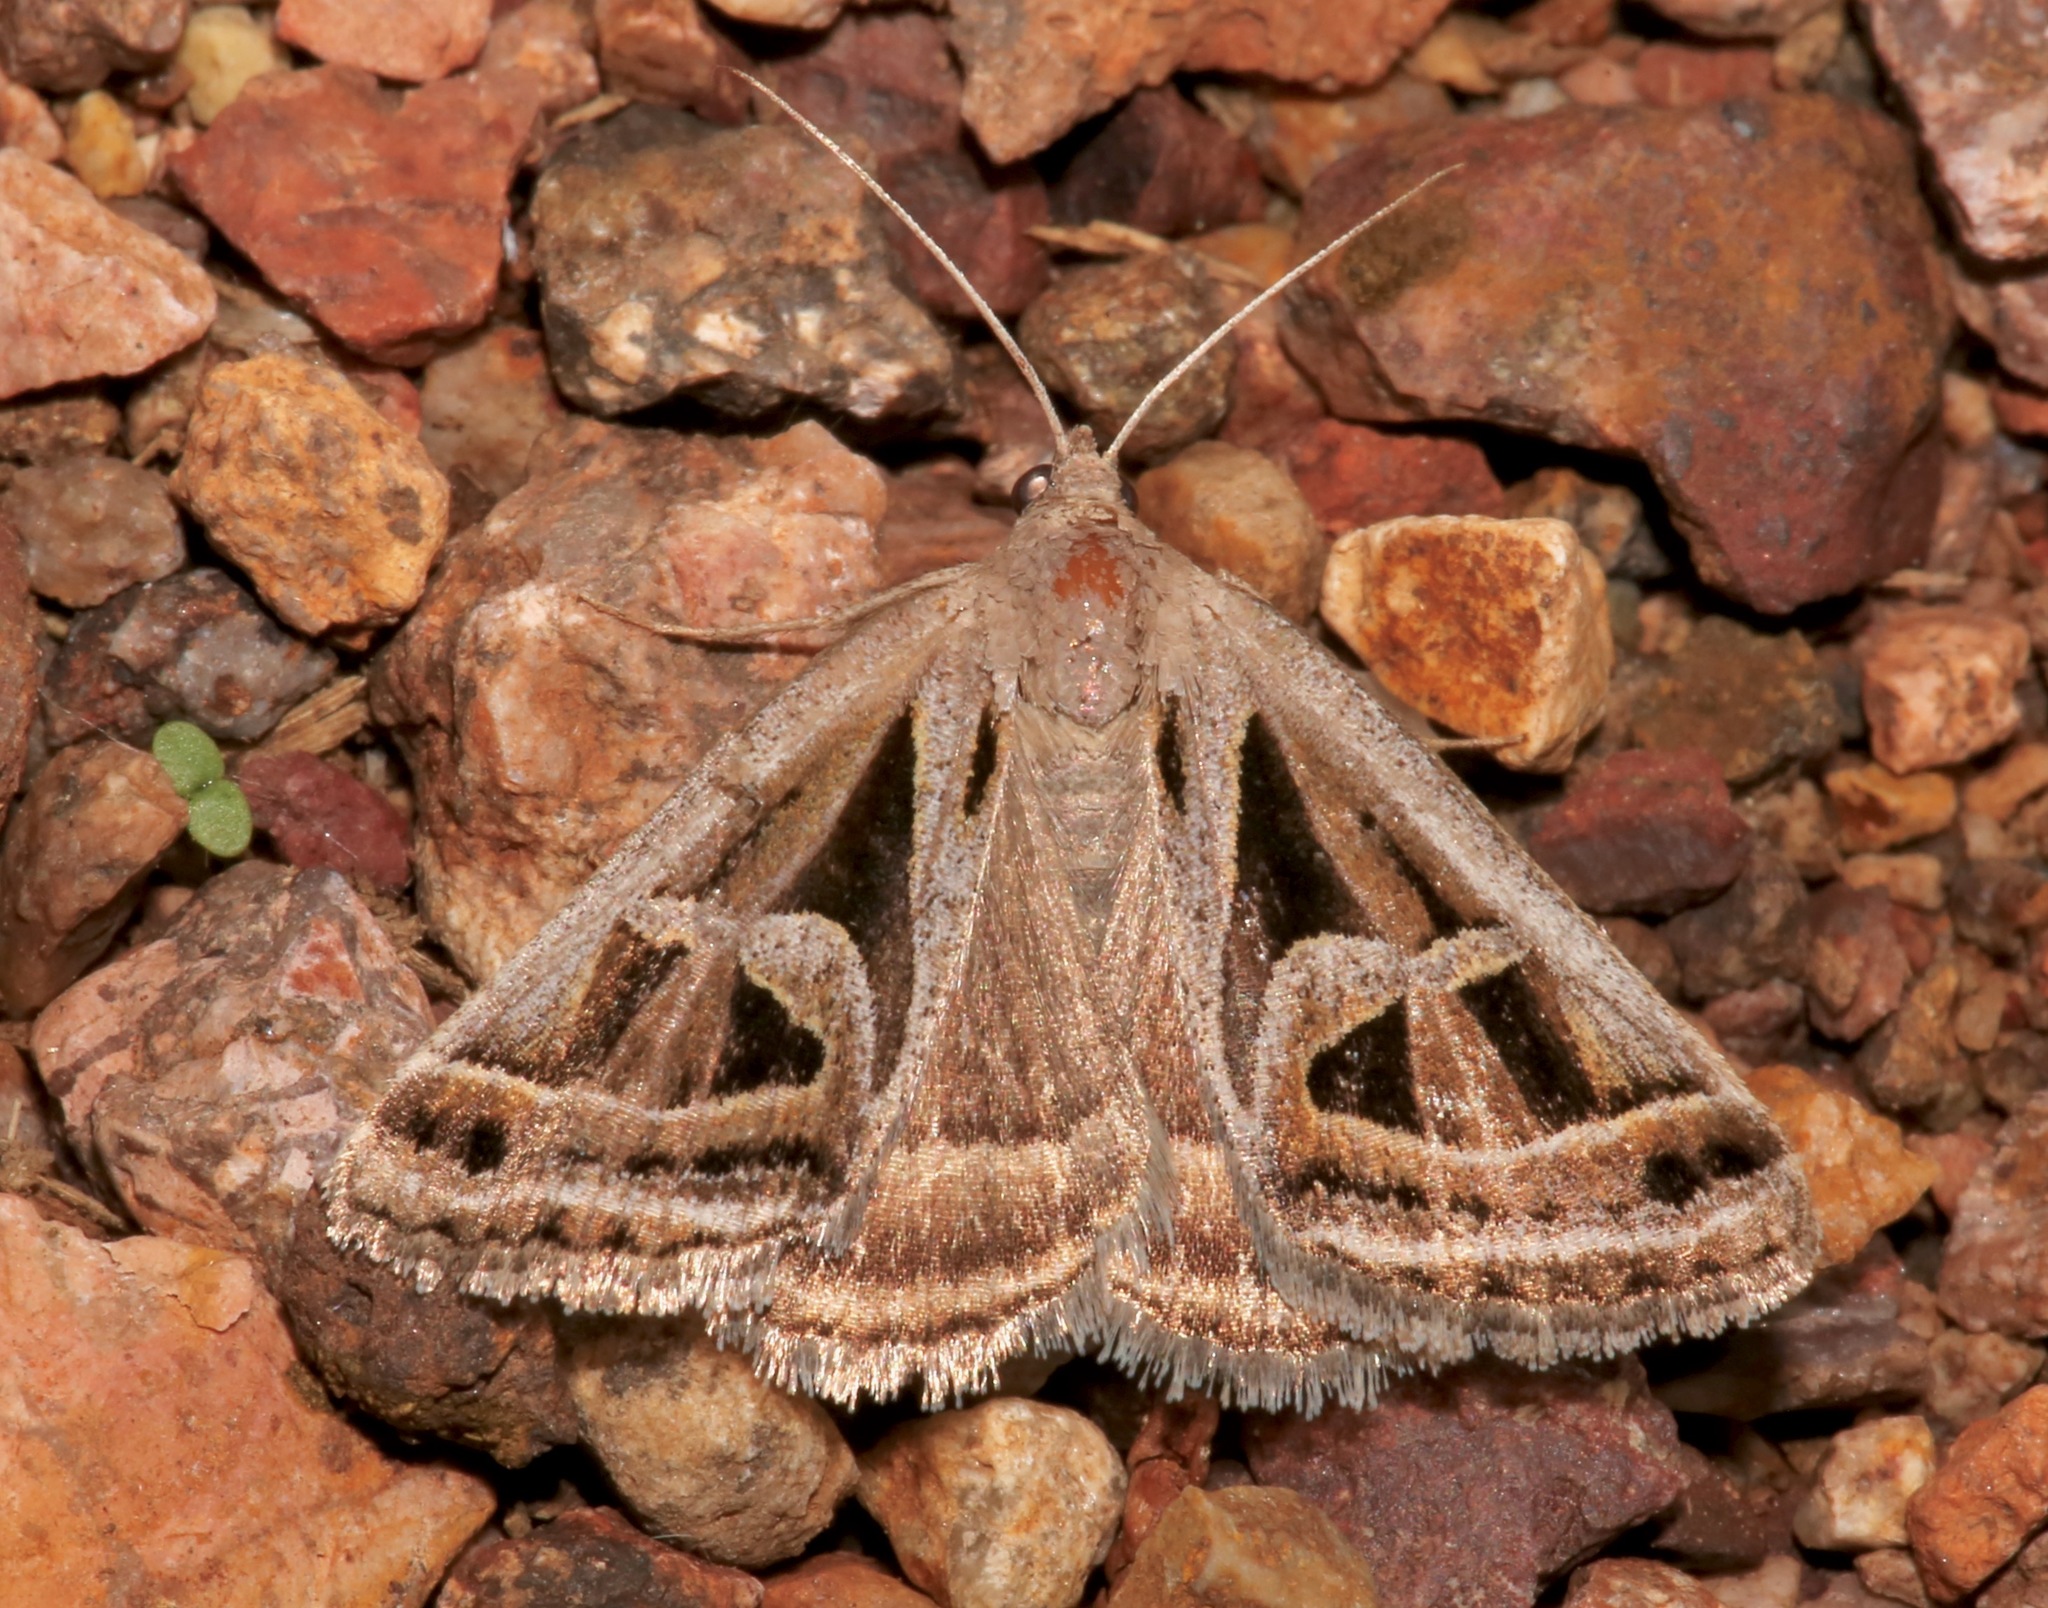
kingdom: Animalia
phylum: Arthropoda
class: Insecta
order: Lepidoptera
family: Erebidae
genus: Callistege
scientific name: Callistege intercalaris
